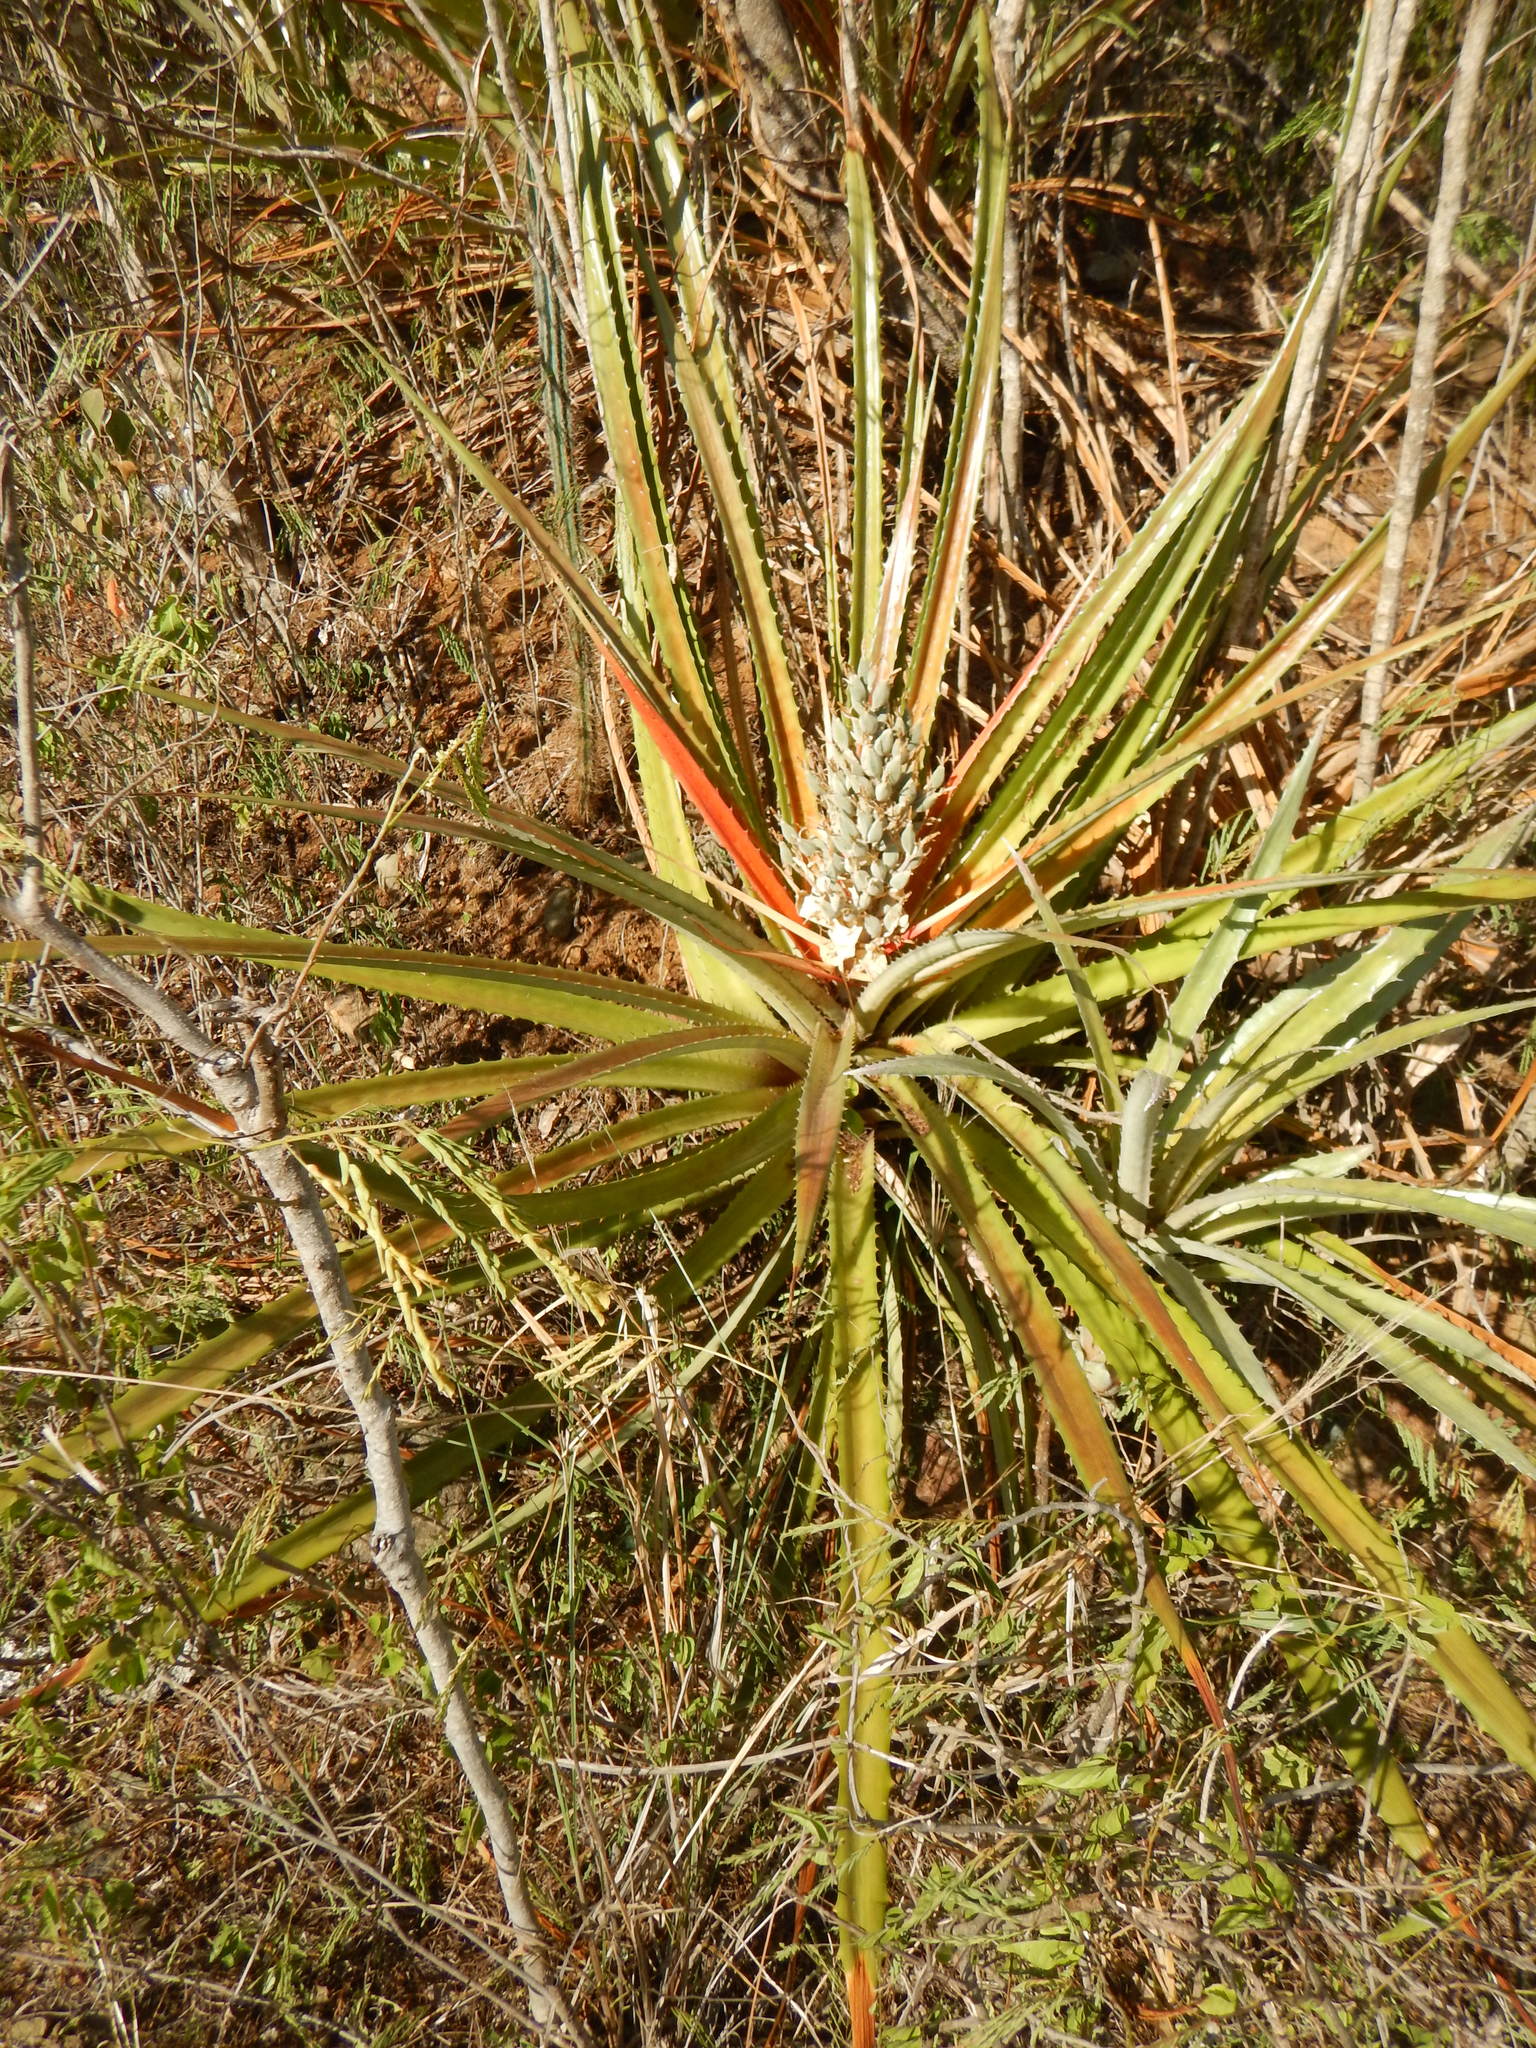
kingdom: Plantae
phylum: Tracheophyta
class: Liliopsida
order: Poales
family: Bromeliaceae
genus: Bromelia
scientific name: Bromelia pinguin
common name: Pinguin
